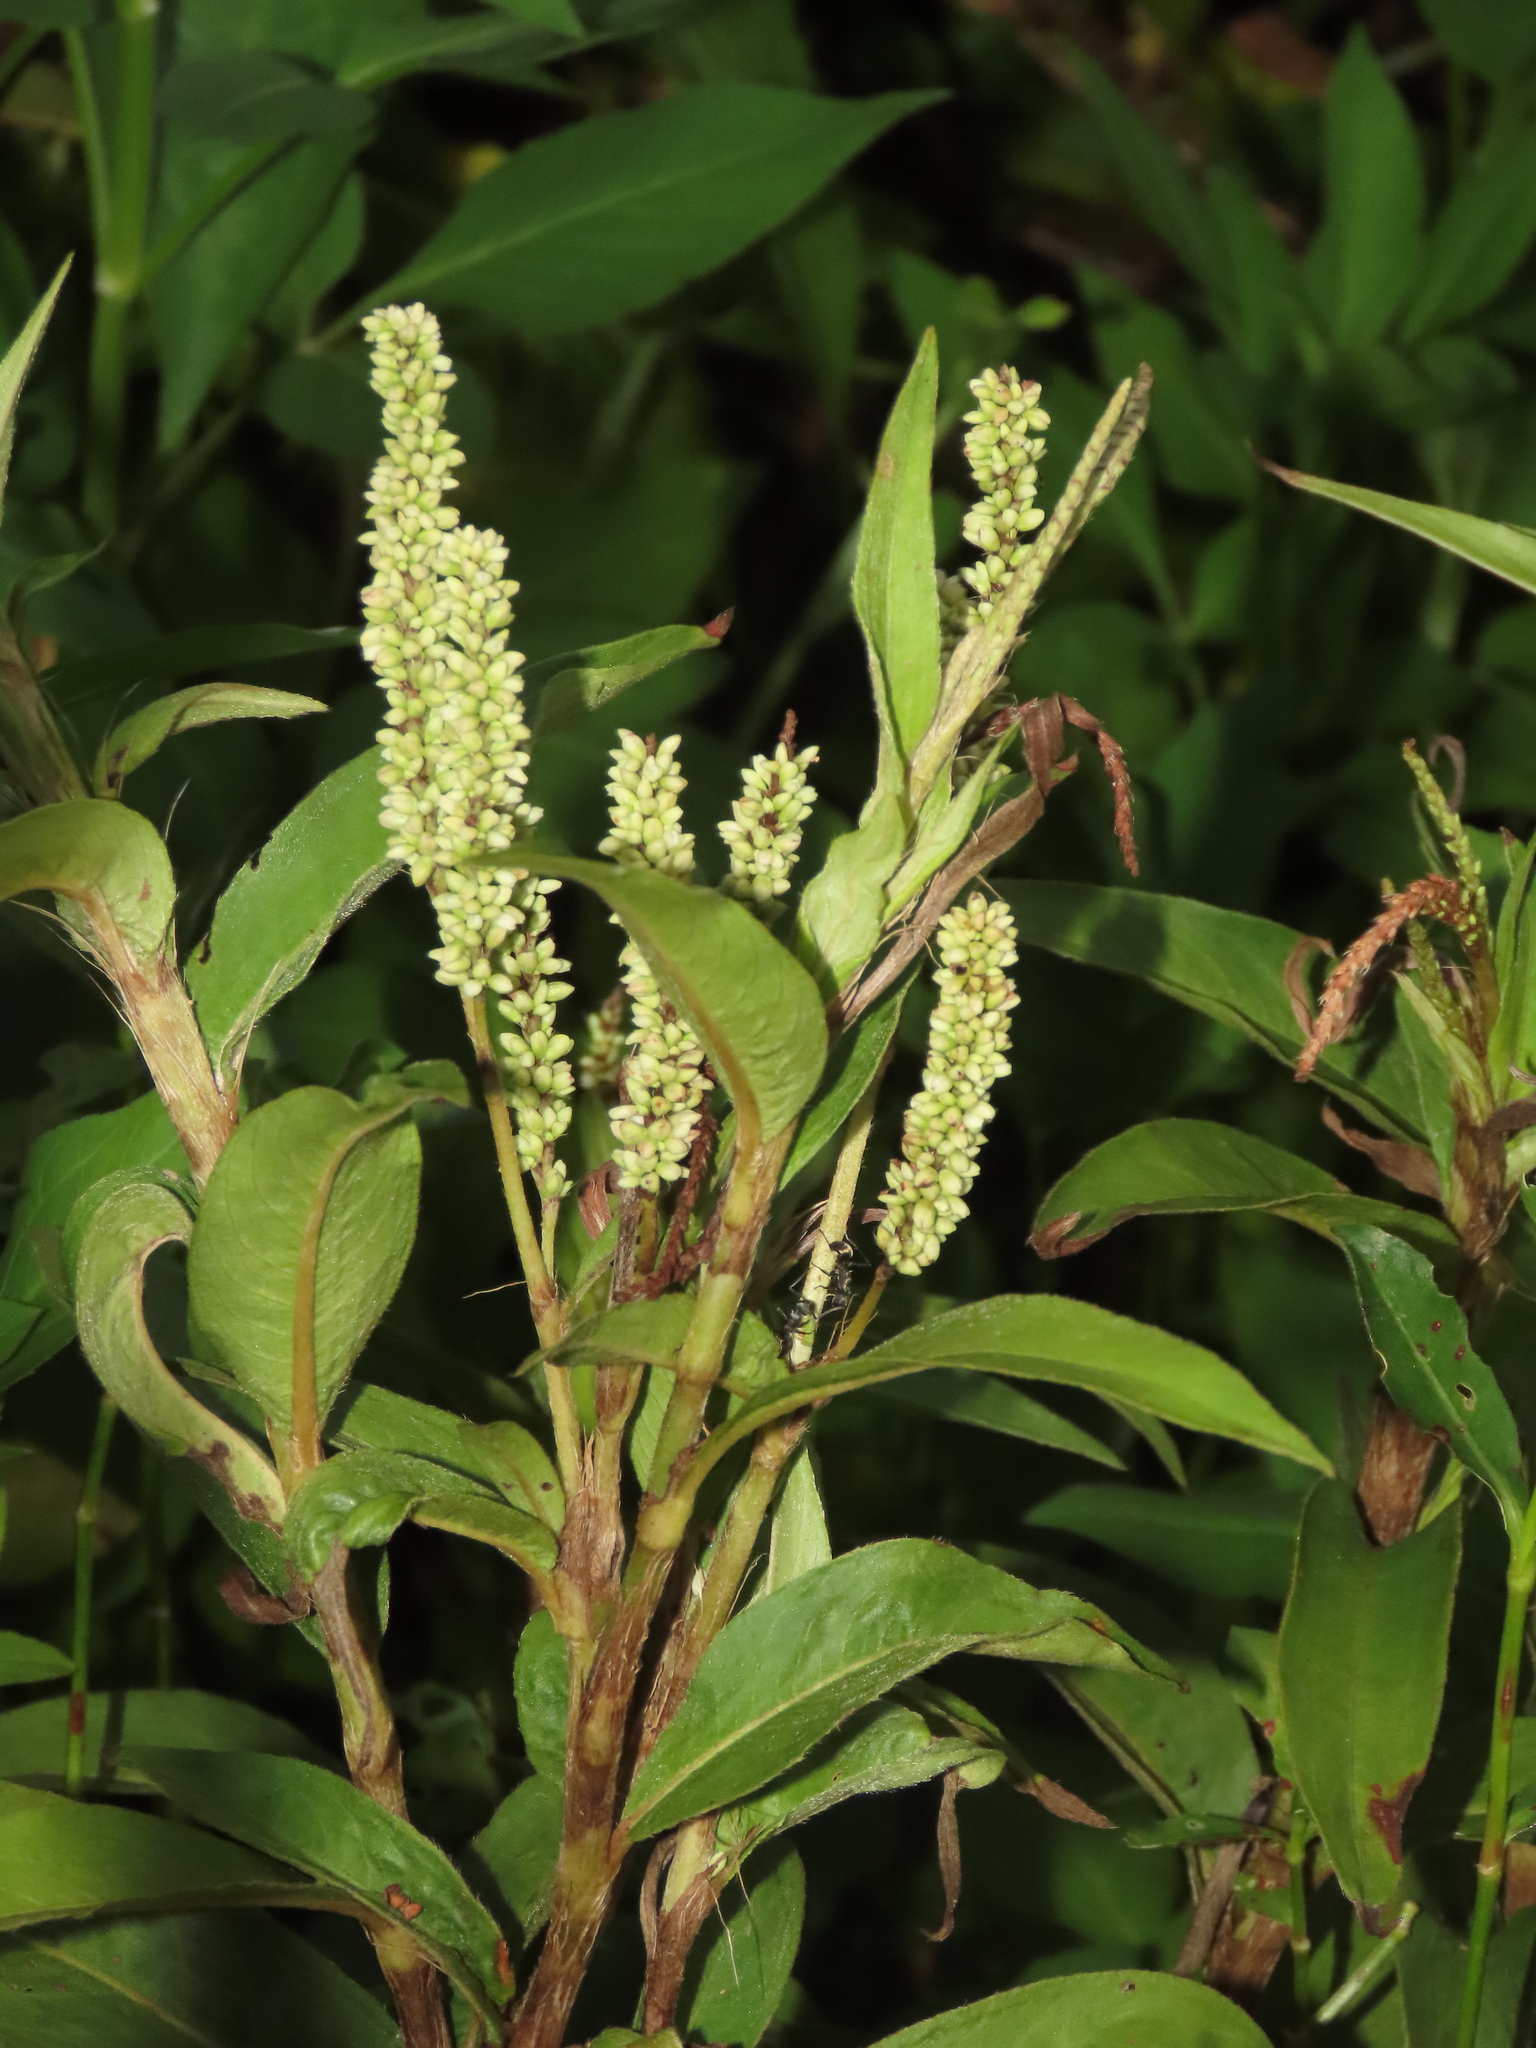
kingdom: Plantae
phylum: Tracheophyta
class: Magnoliopsida
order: Caryophyllales
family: Polygonaceae
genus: Persicaria
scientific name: Persicaria barbata
